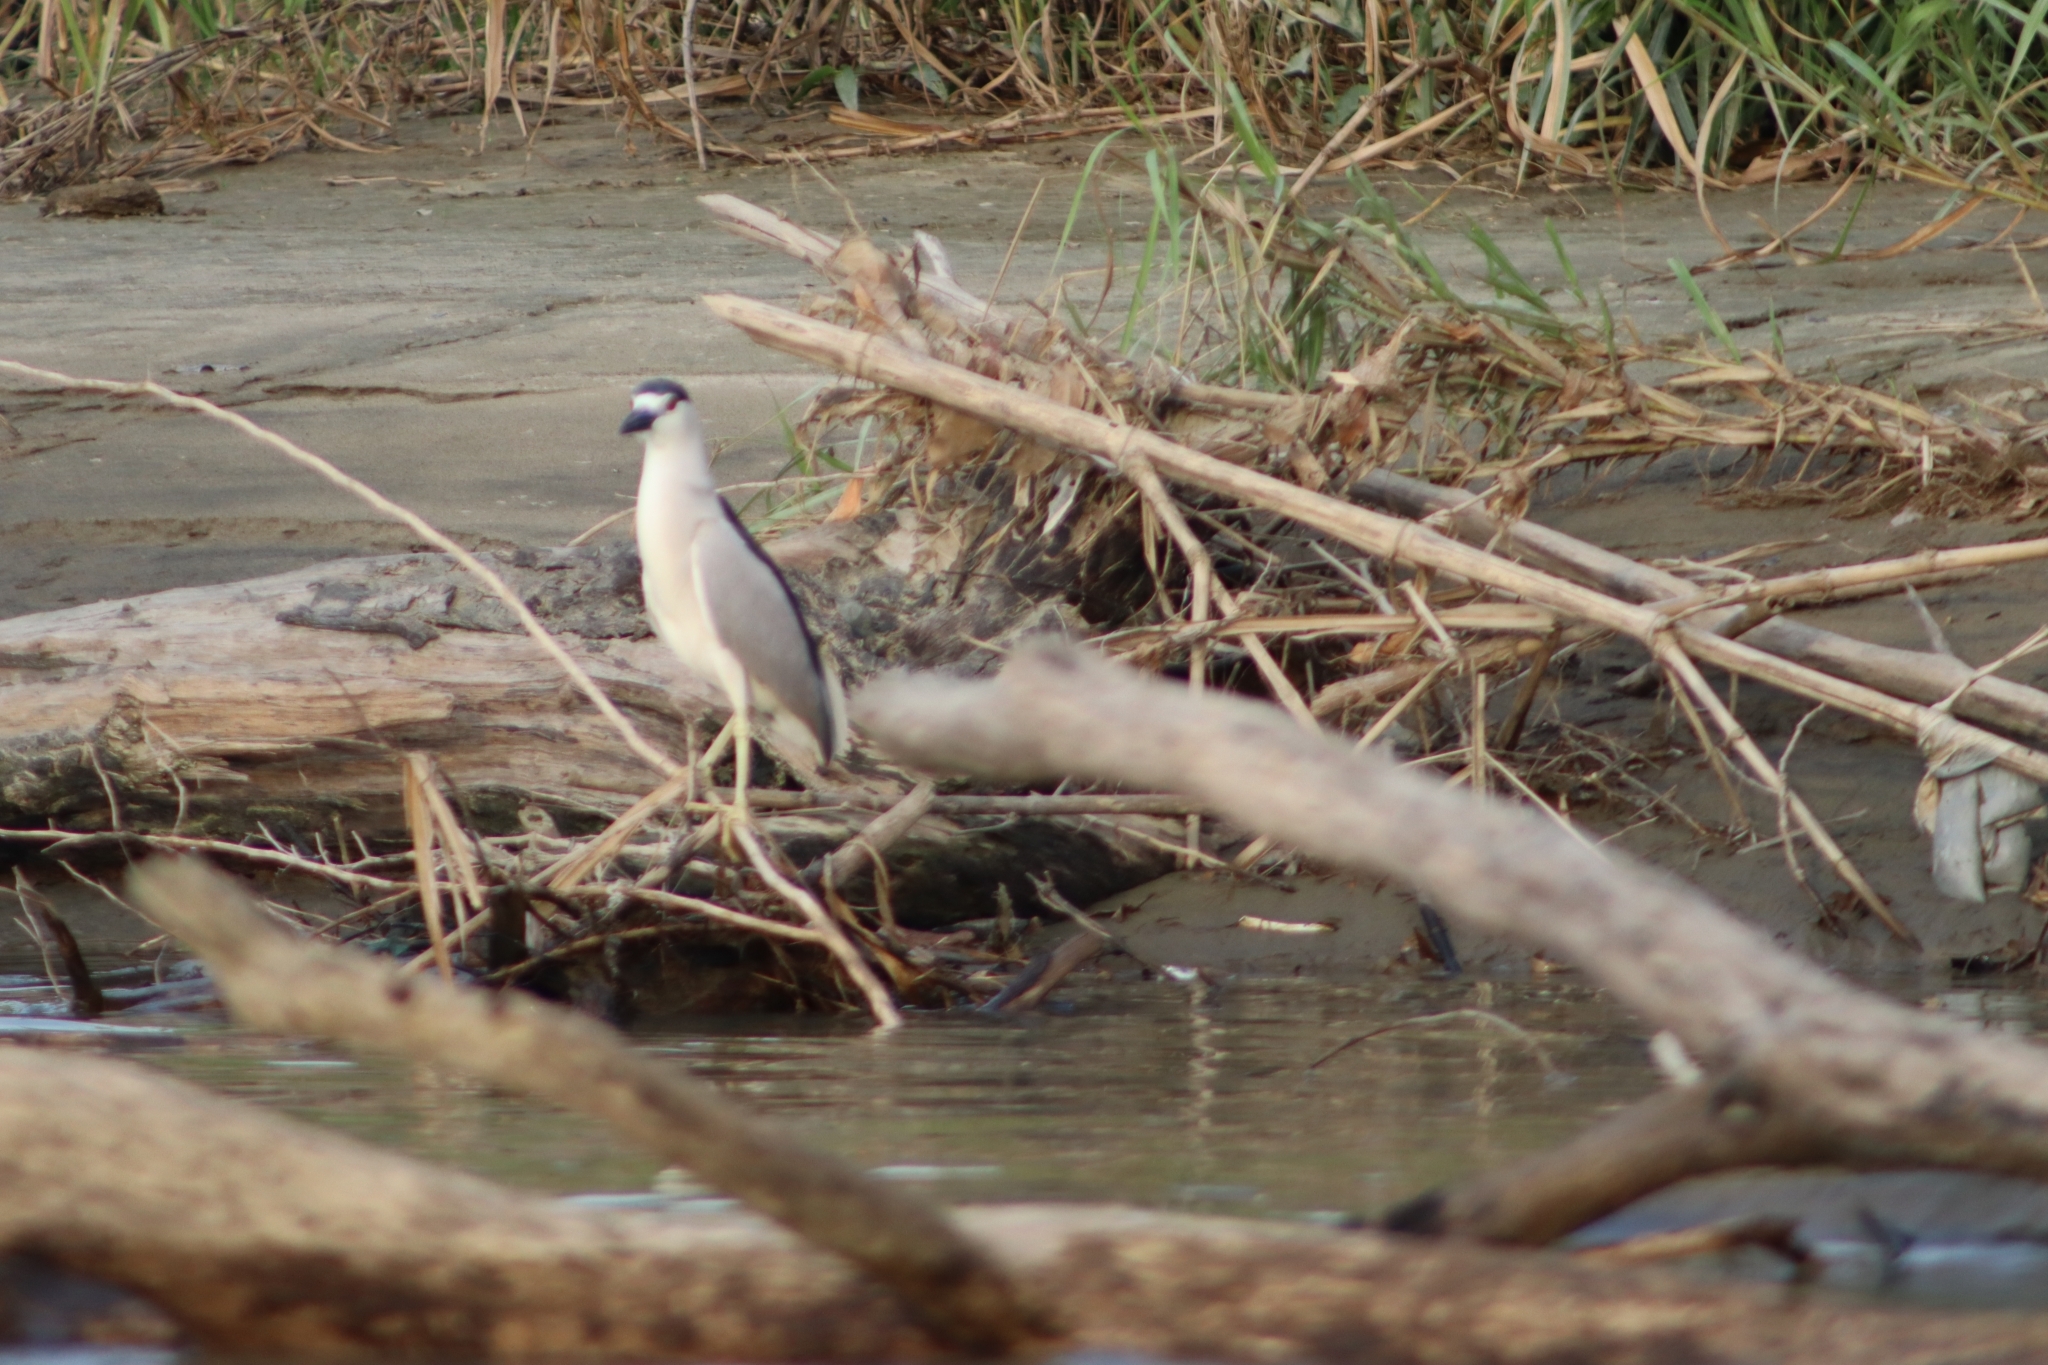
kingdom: Animalia
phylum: Chordata
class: Aves
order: Pelecaniformes
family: Ardeidae
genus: Nycticorax
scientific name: Nycticorax nycticorax
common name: Black-crowned night heron
